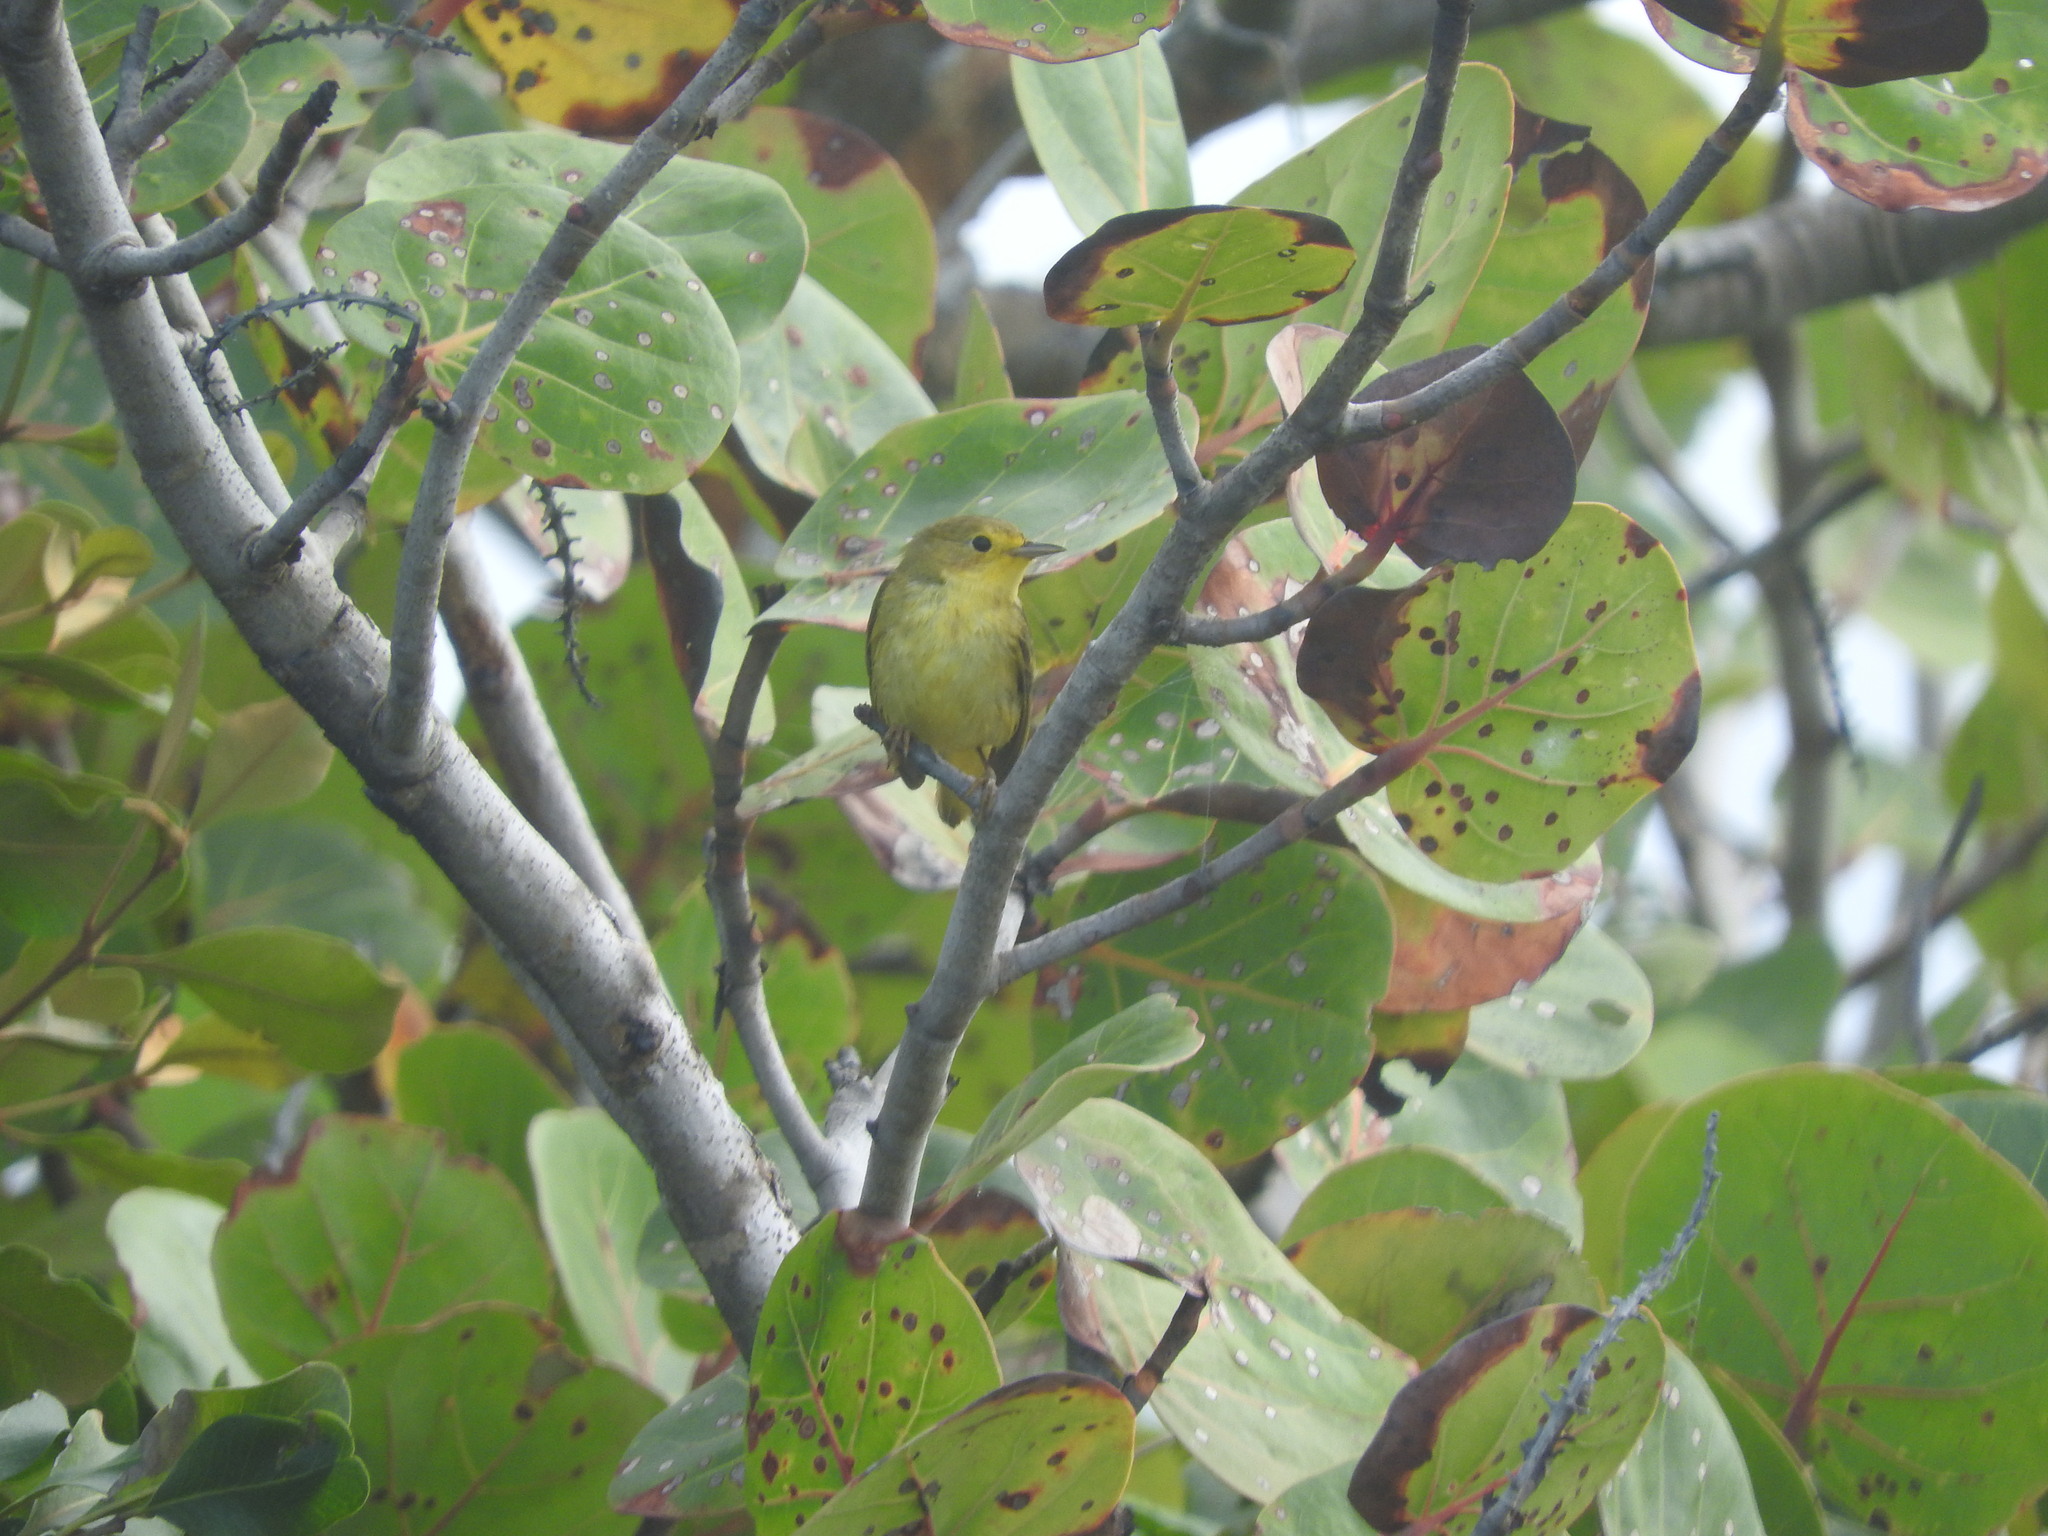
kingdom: Animalia
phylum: Chordata
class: Aves
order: Passeriformes
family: Parulidae
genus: Setophaga
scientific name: Setophaga petechia
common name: Yellow warbler
